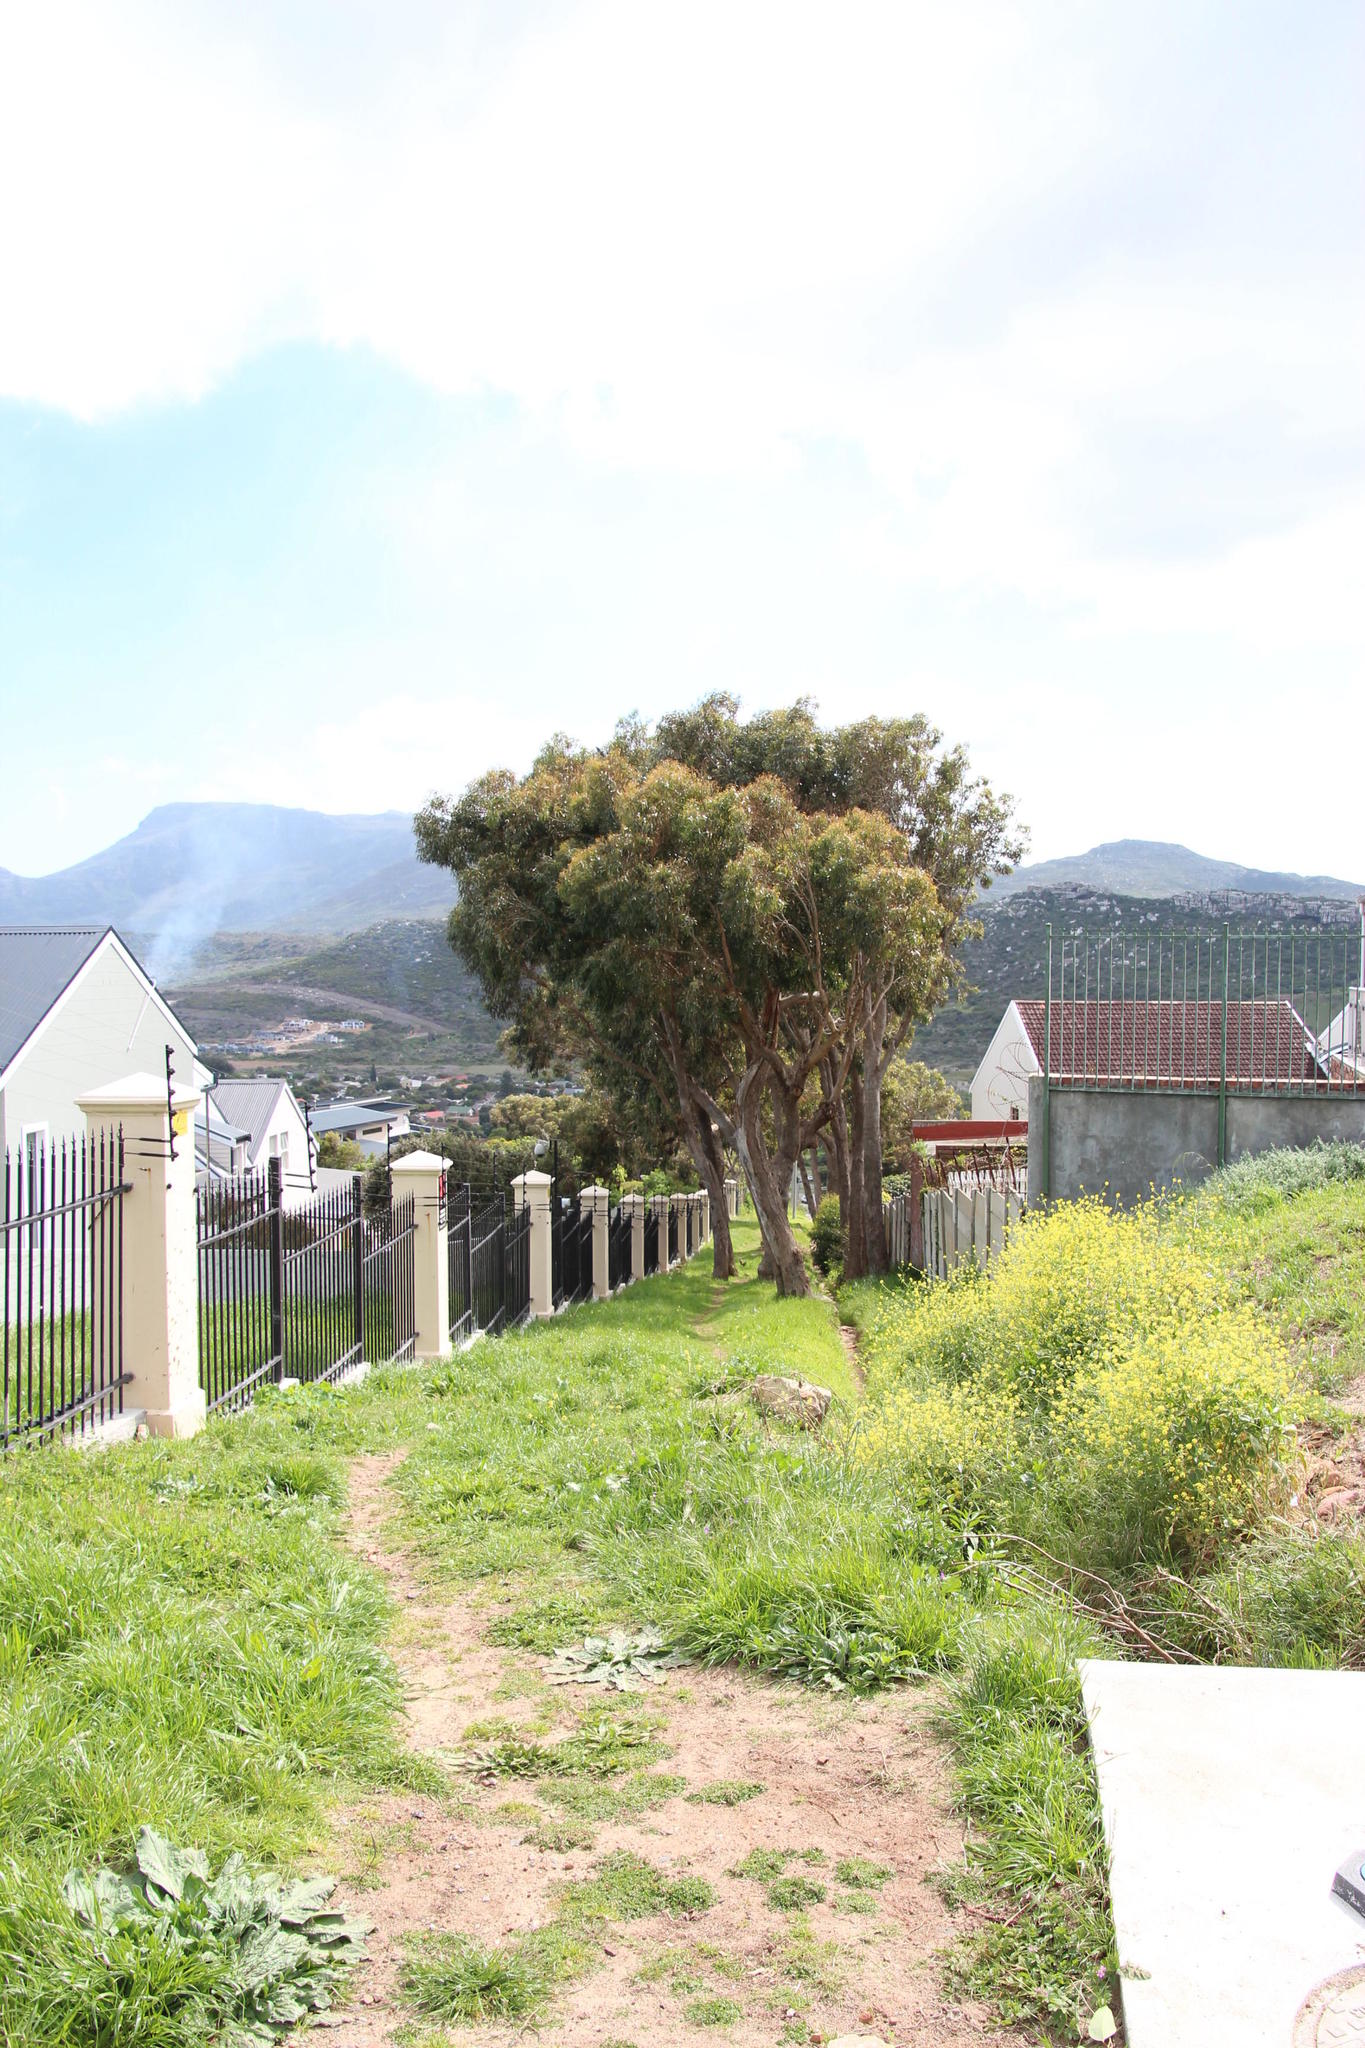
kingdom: Plantae
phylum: Tracheophyta
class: Magnoliopsida
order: Brassicales
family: Brassicaceae
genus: Rapistrum
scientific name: Rapistrum rugosum
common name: Annual bastardcabbage
